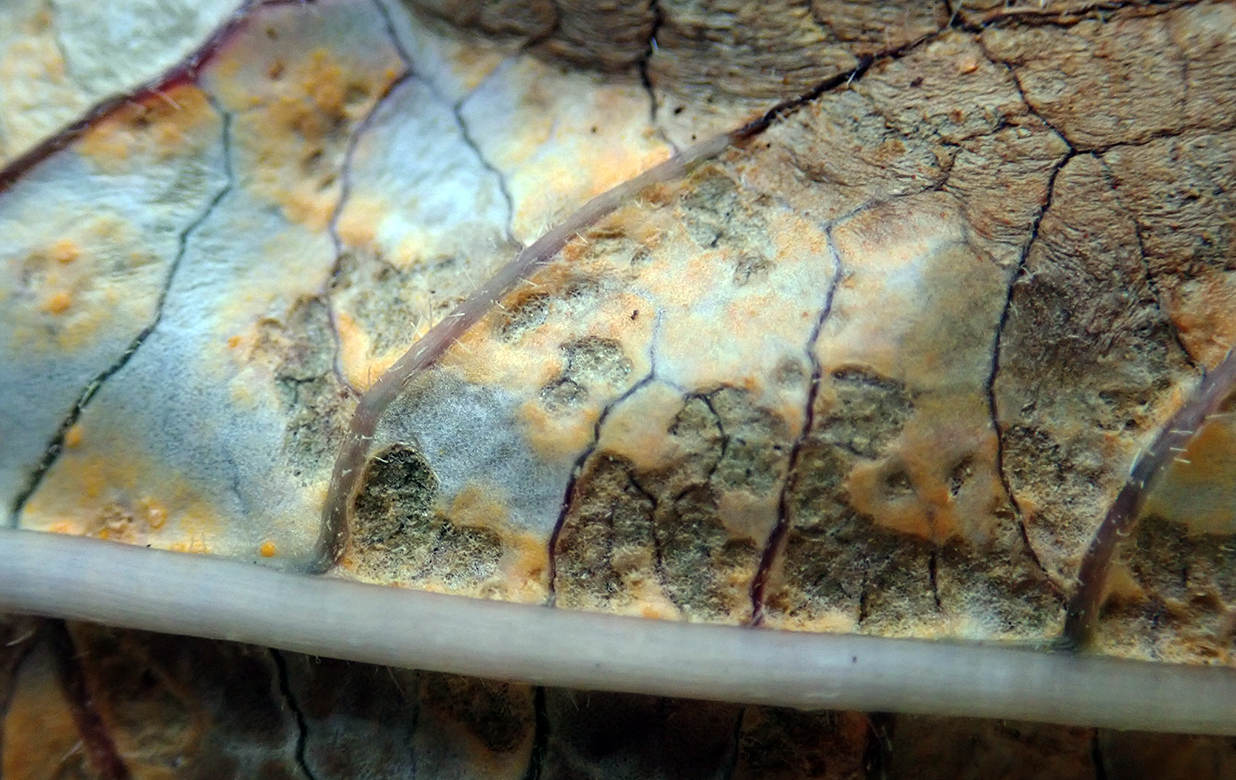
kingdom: Fungi
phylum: Basidiomycota
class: Pucciniomycetes
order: Pucciniales
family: Mikronegeriaceae
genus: Mikronegeria
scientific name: Mikronegeria fuchsiae
